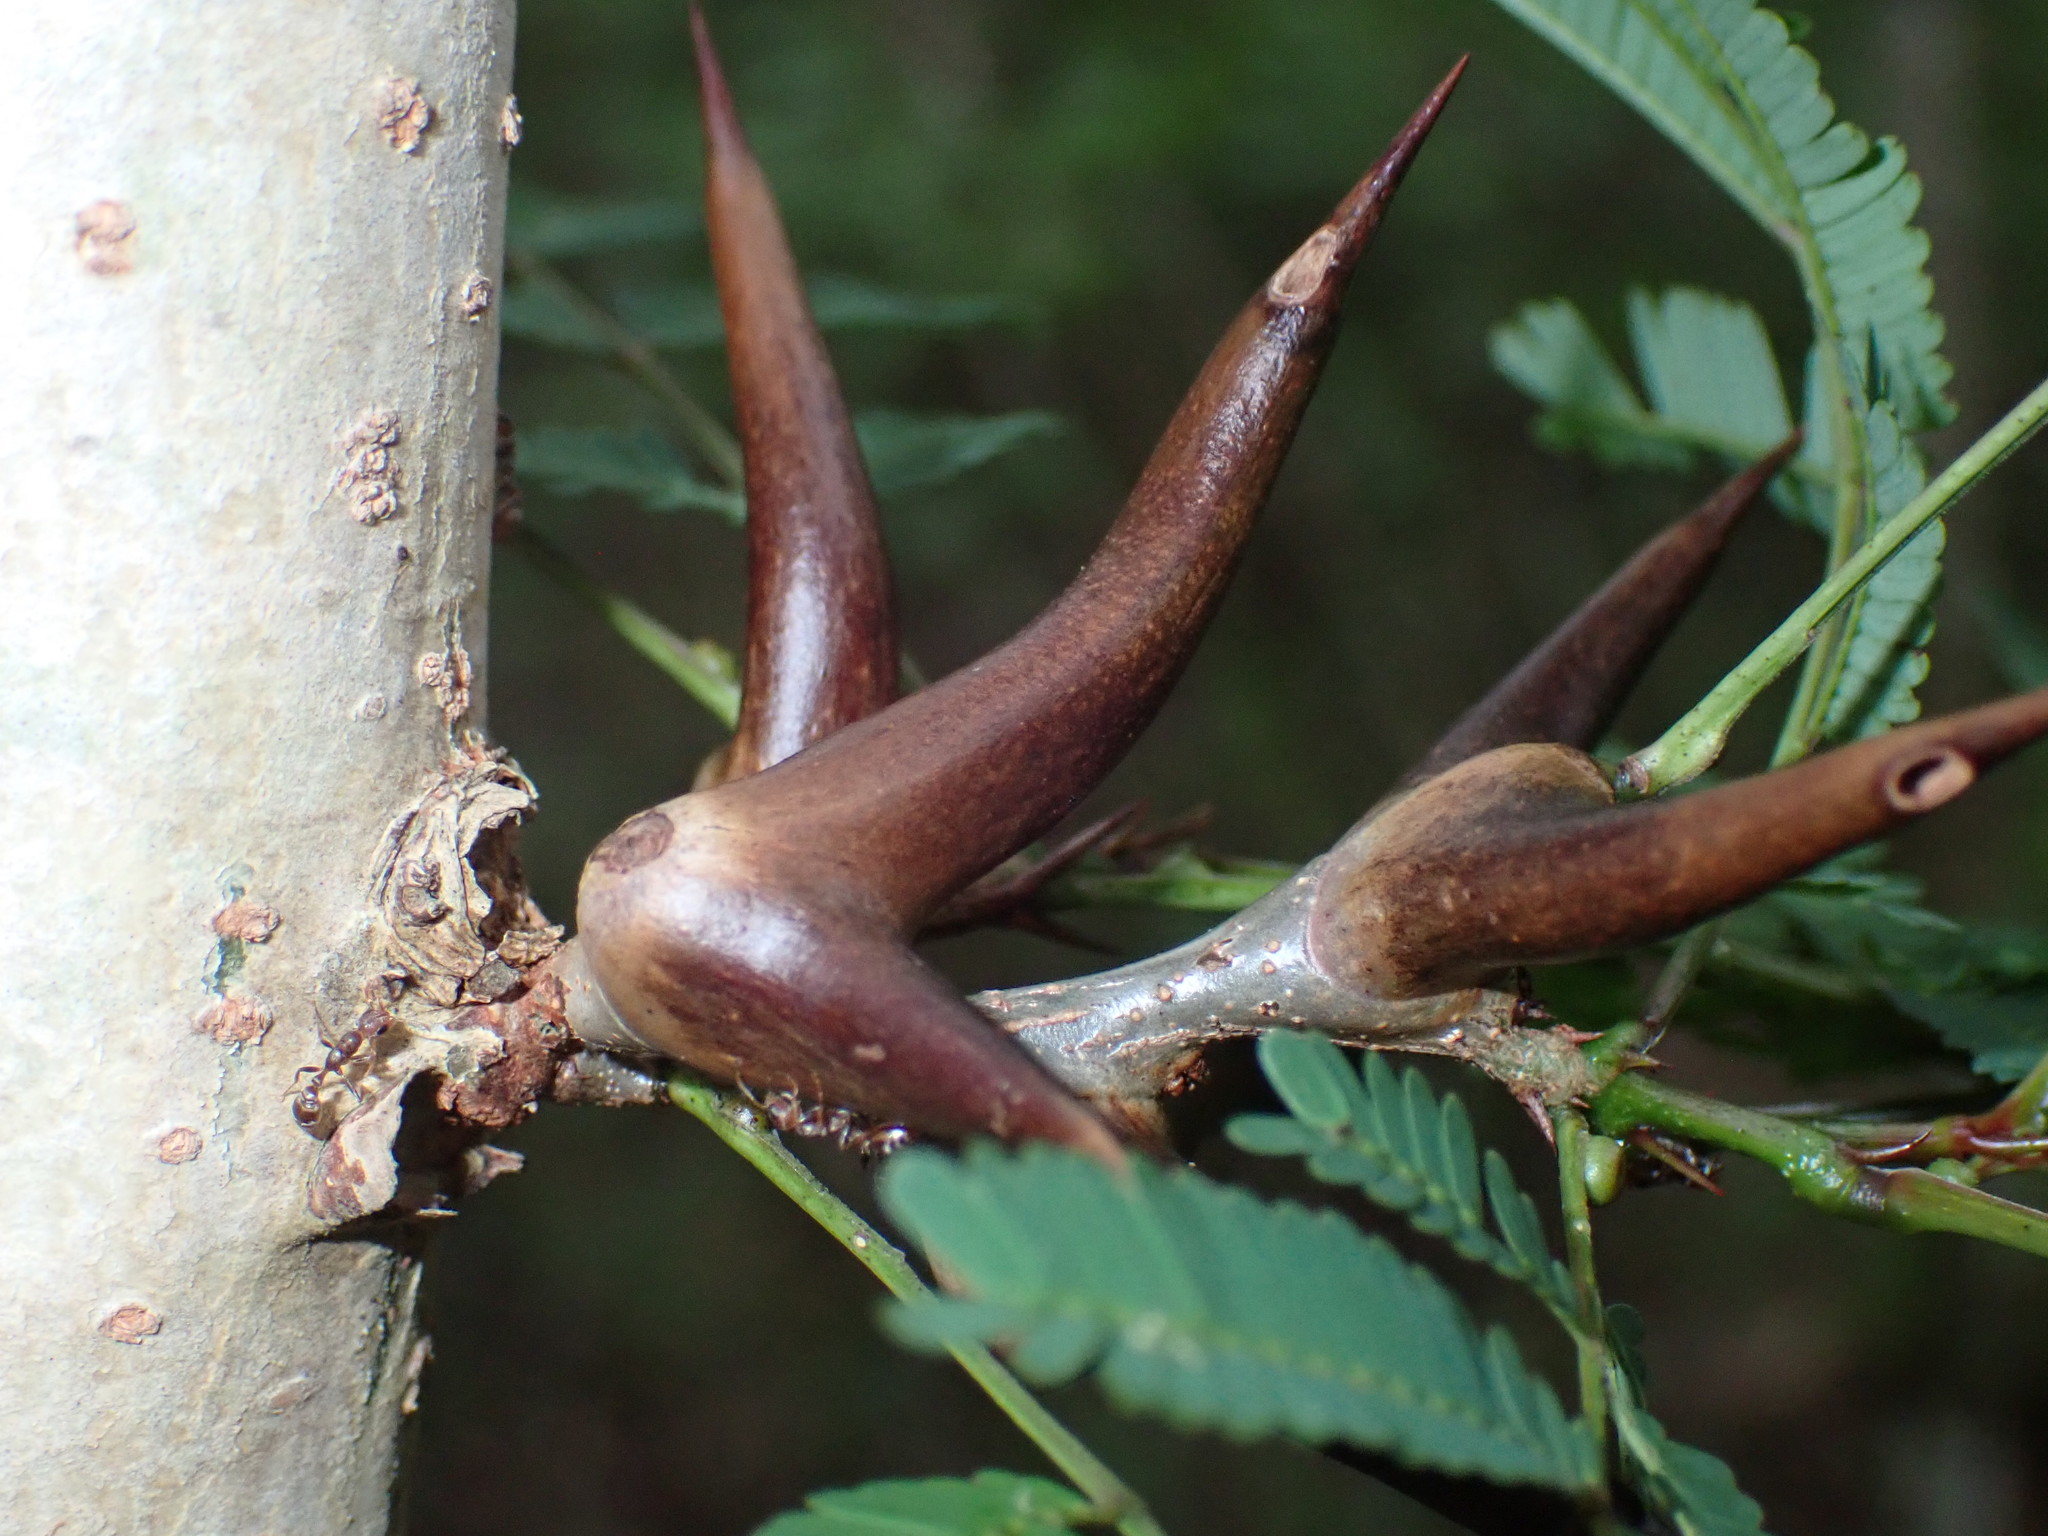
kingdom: Plantae
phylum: Tracheophyta
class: Magnoliopsida
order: Fabales
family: Fabaceae
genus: Vachellia
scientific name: Vachellia cornigera
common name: Bullhorn wattle
